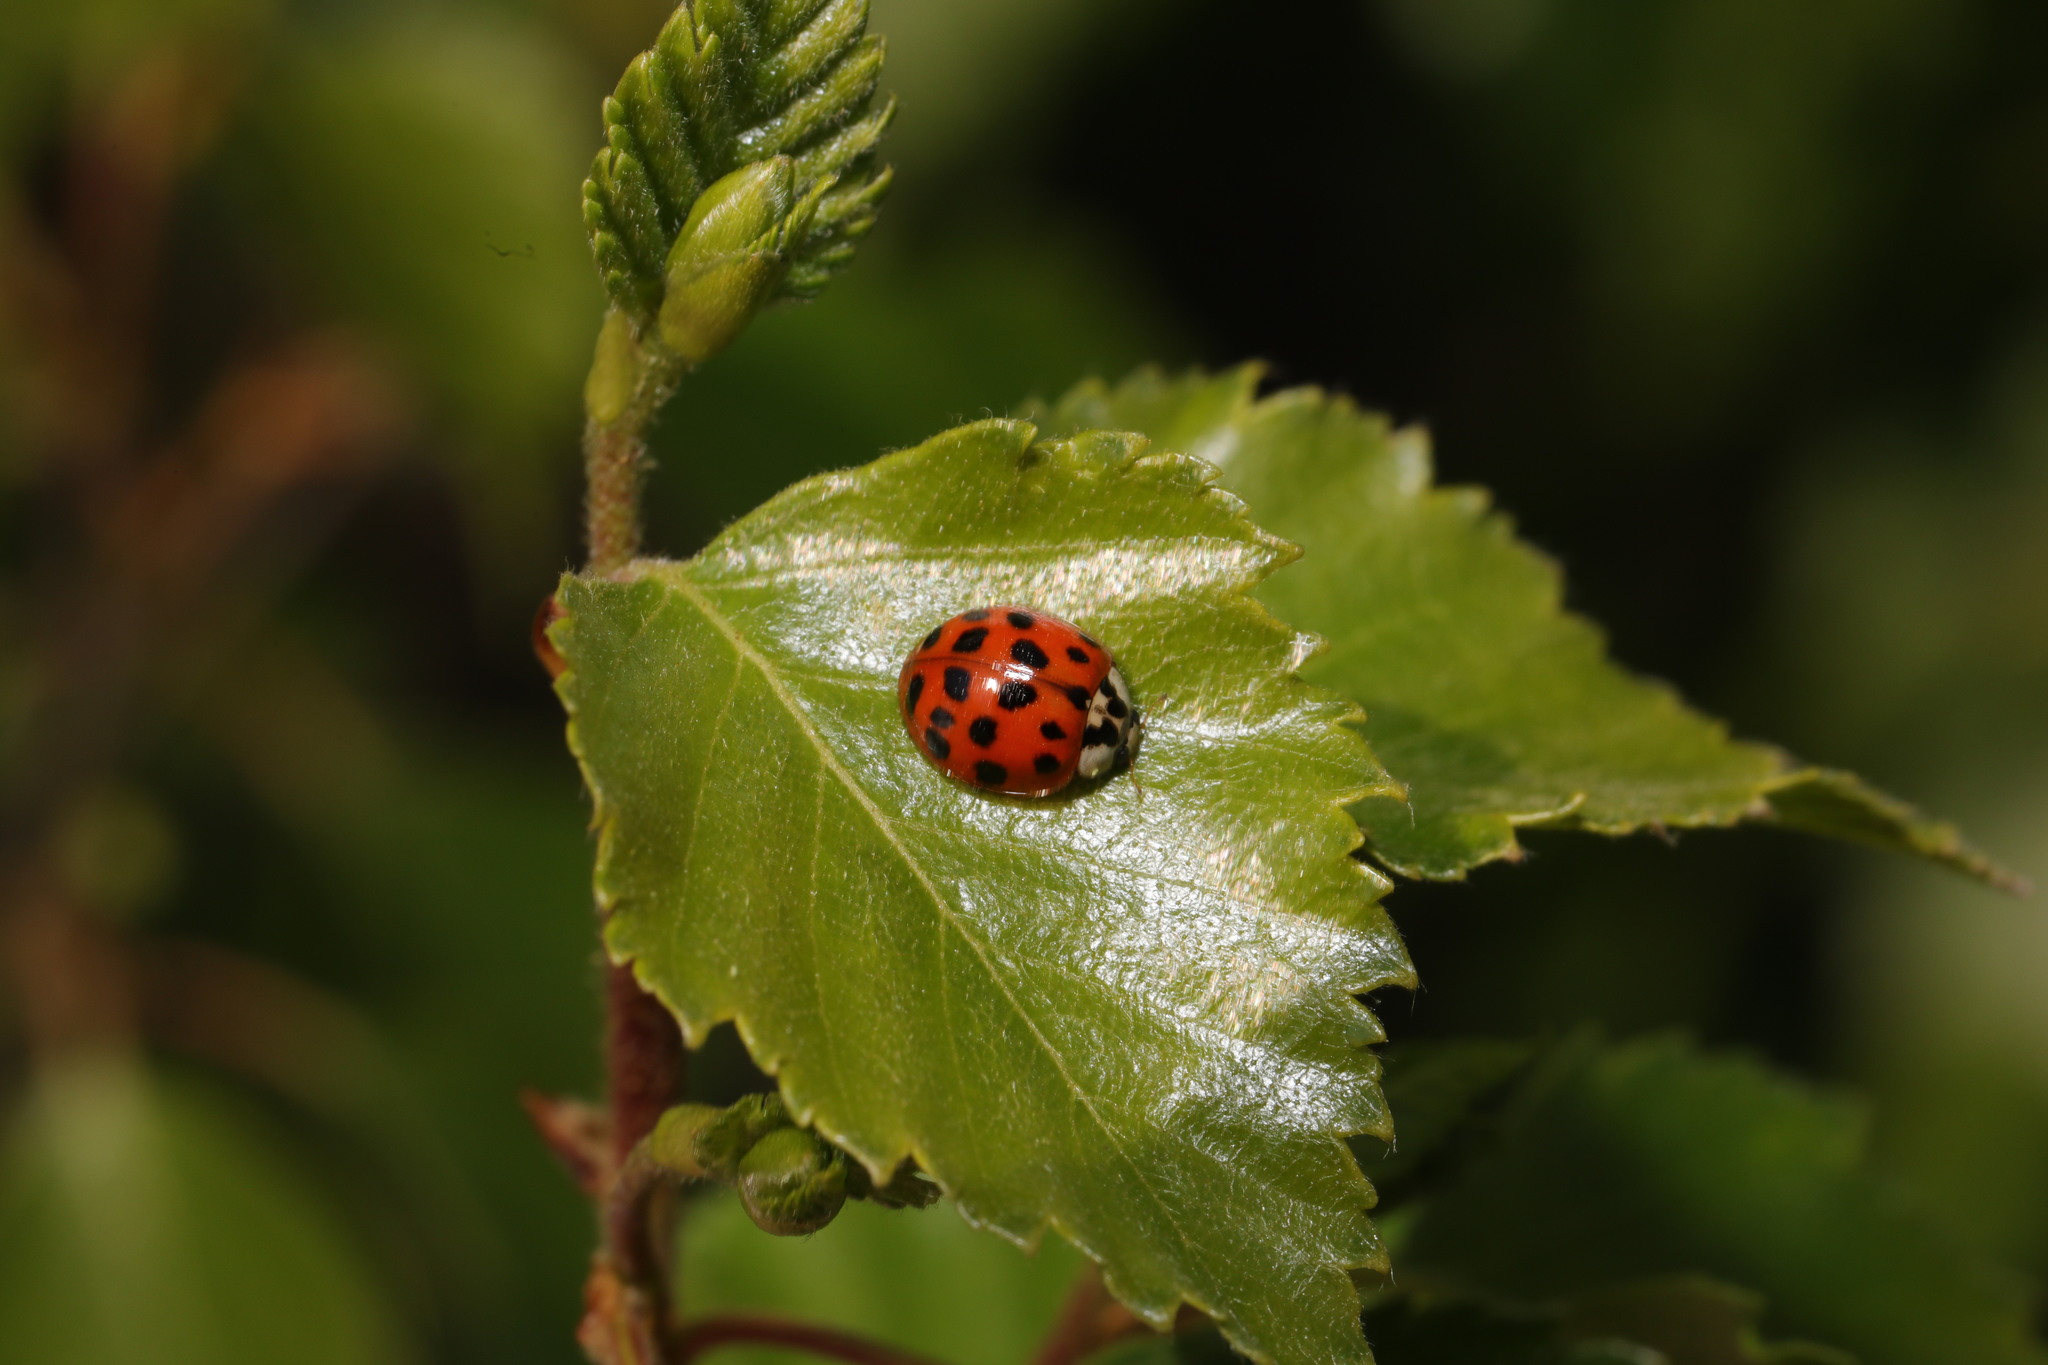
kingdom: Animalia
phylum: Arthropoda
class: Insecta
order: Coleoptera
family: Coccinellidae
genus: Harmonia
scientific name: Harmonia axyridis
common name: Harlequin ladybird
